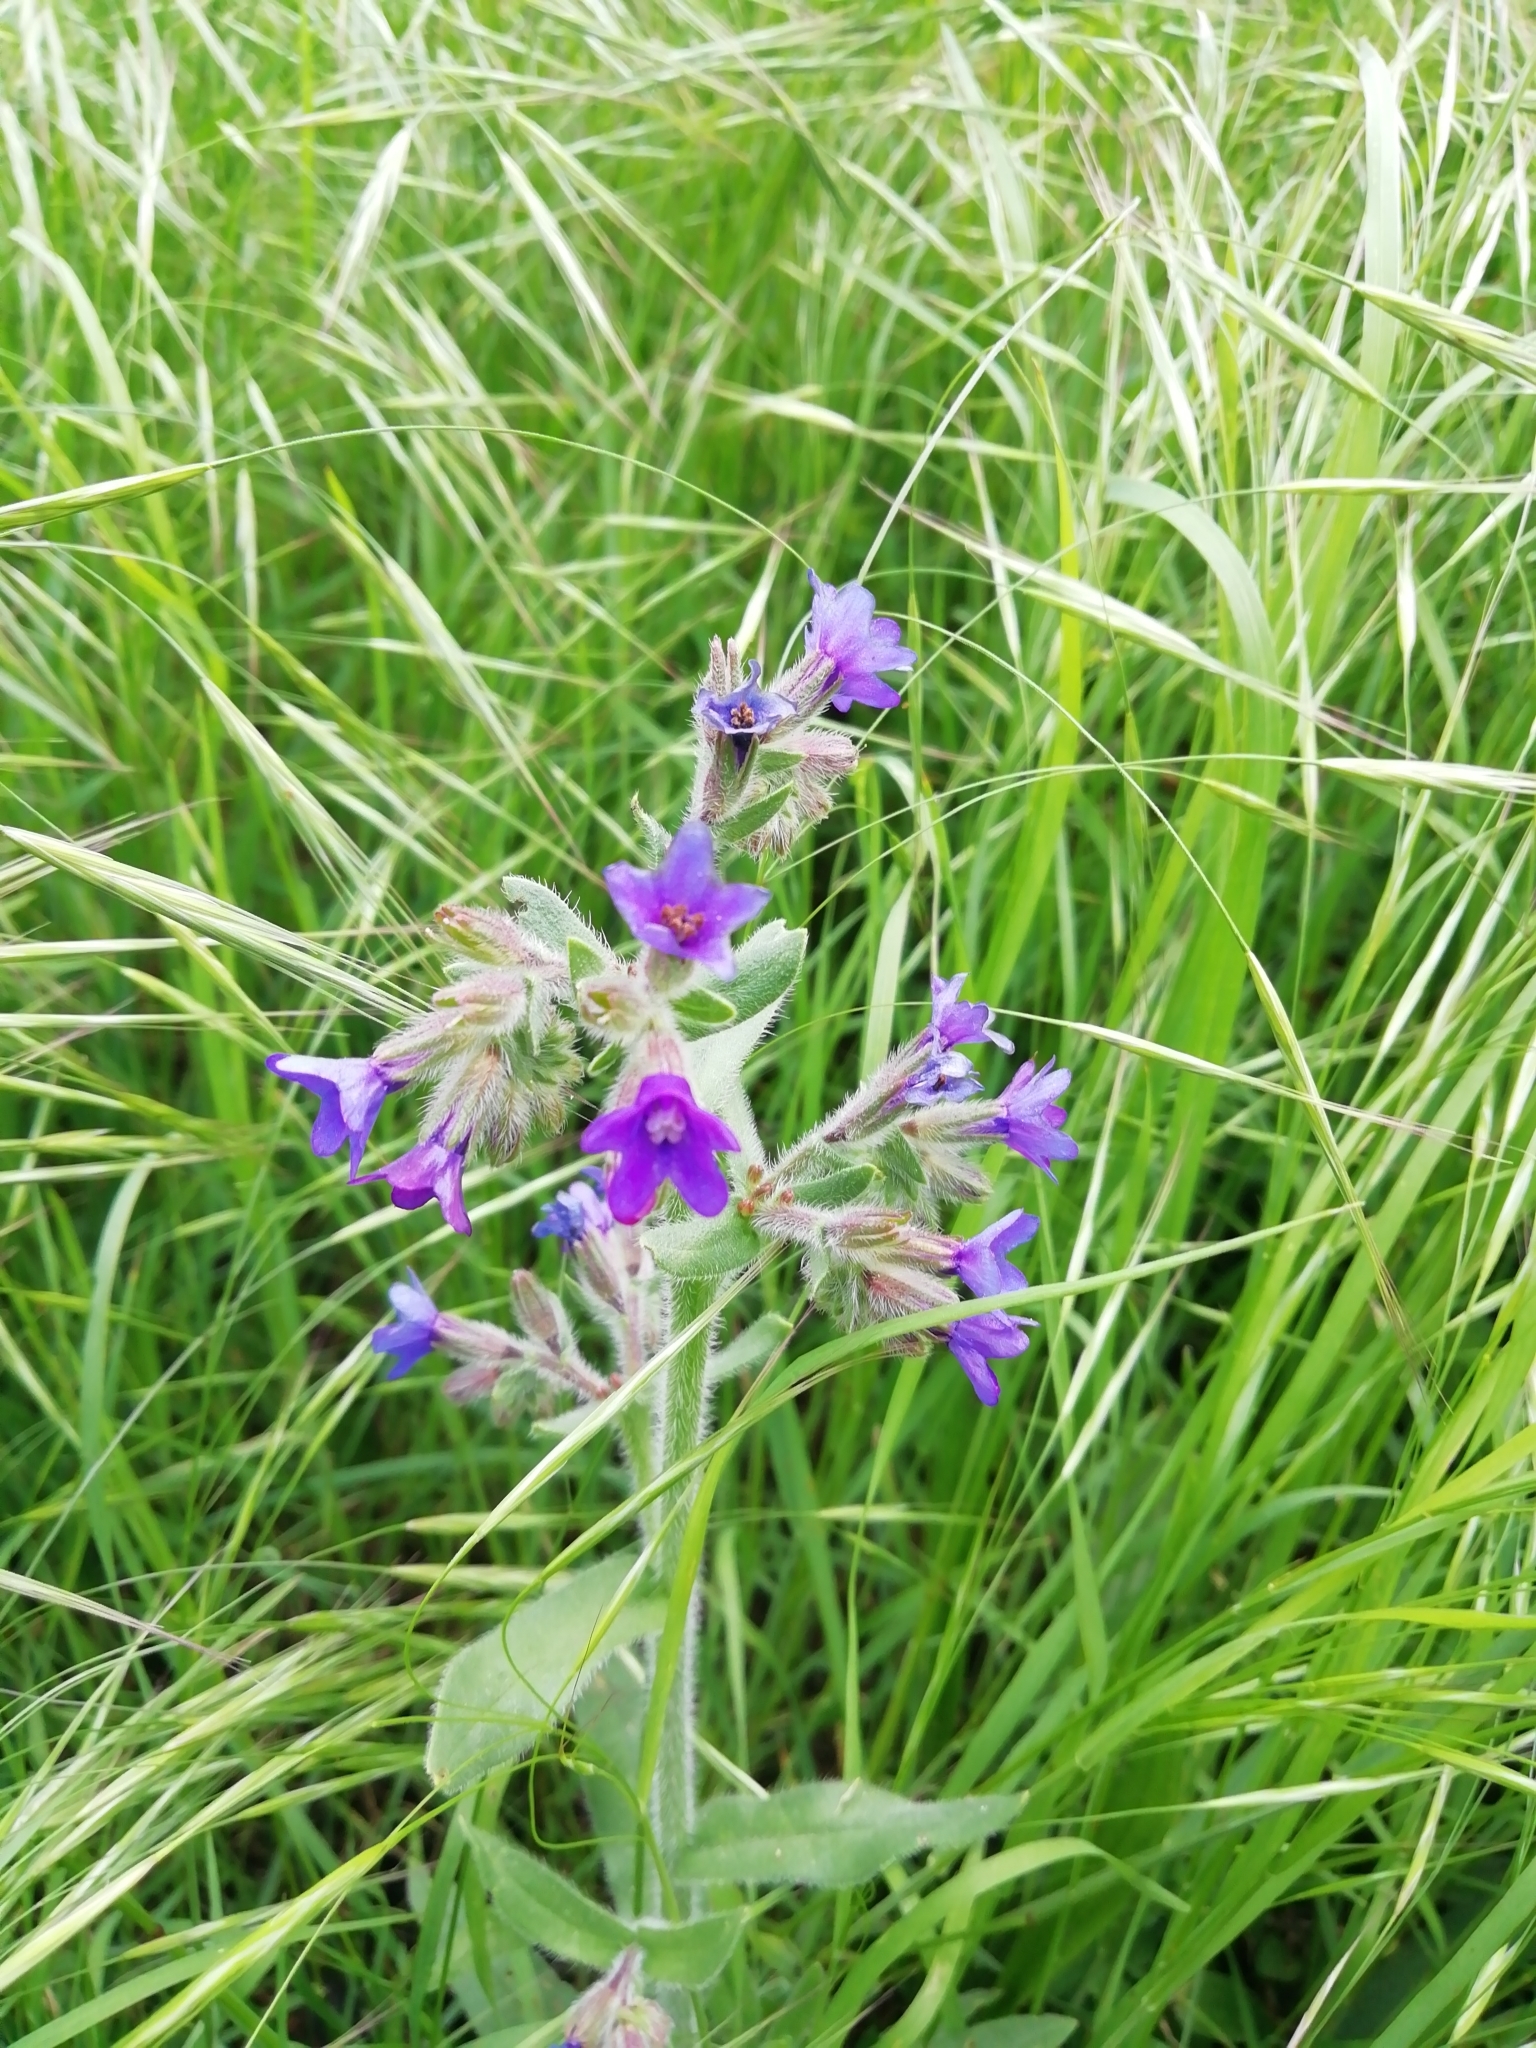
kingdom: Plantae
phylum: Tracheophyta
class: Magnoliopsida
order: Boraginales
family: Boraginaceae
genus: Anchusa
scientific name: Anchusa officinalis
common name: Alkanet
